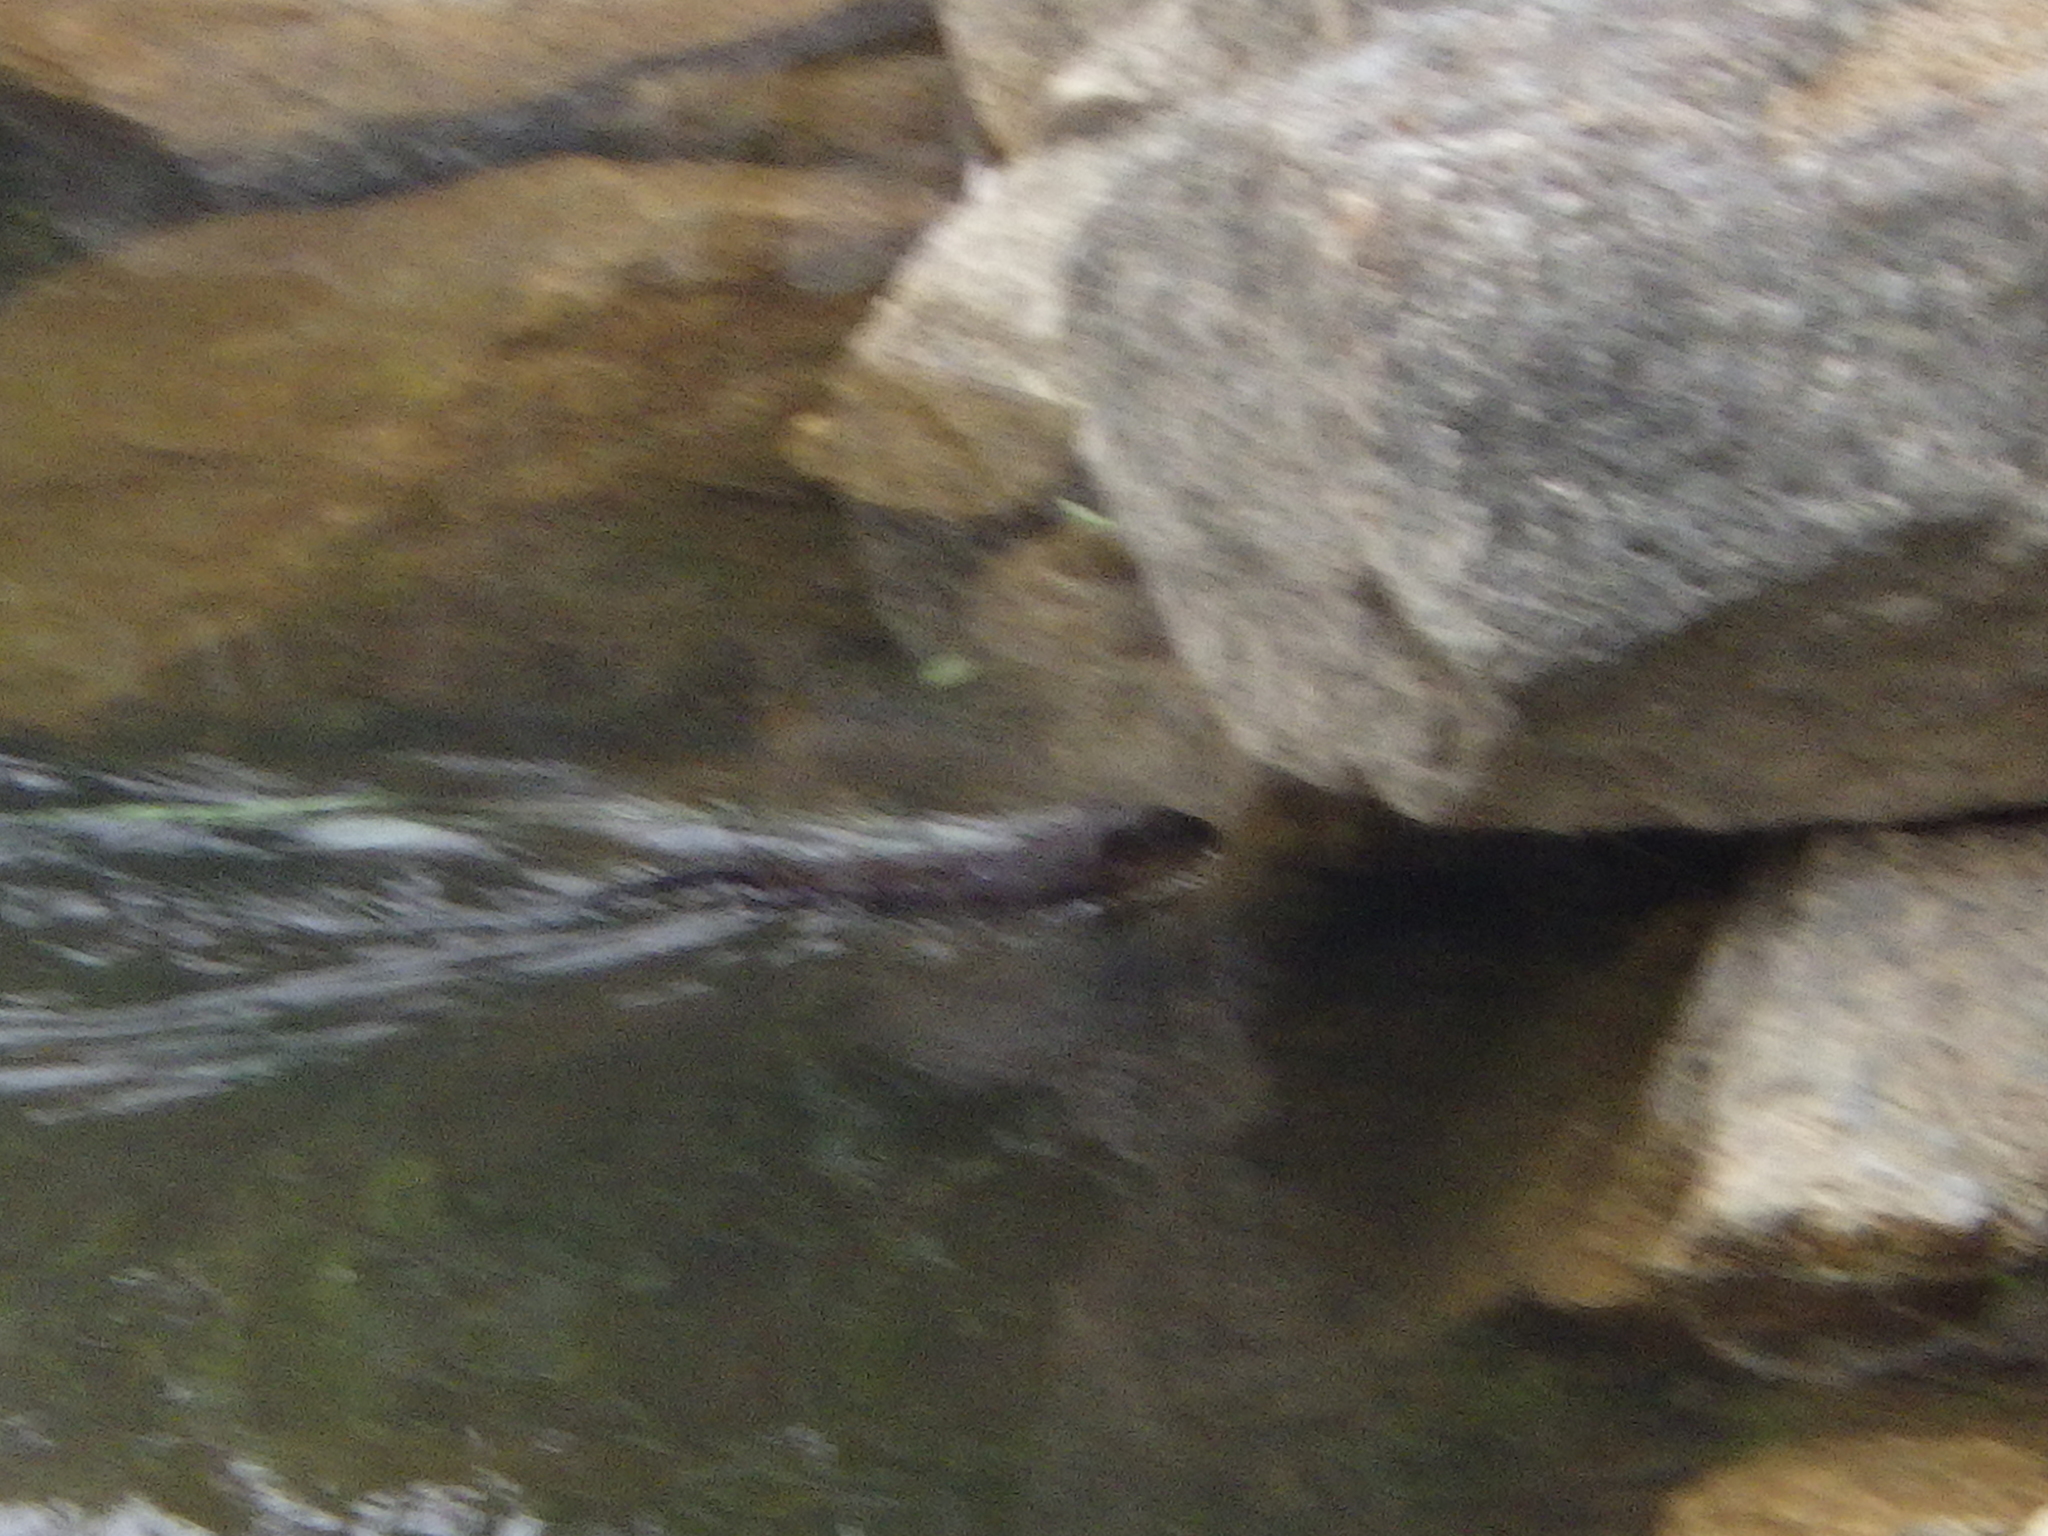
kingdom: Animalia
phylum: Chordata
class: Mammalia
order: Rodentia
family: Cricetidae
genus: Ondatra
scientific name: Ondatra zibethicus
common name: Muskrat
